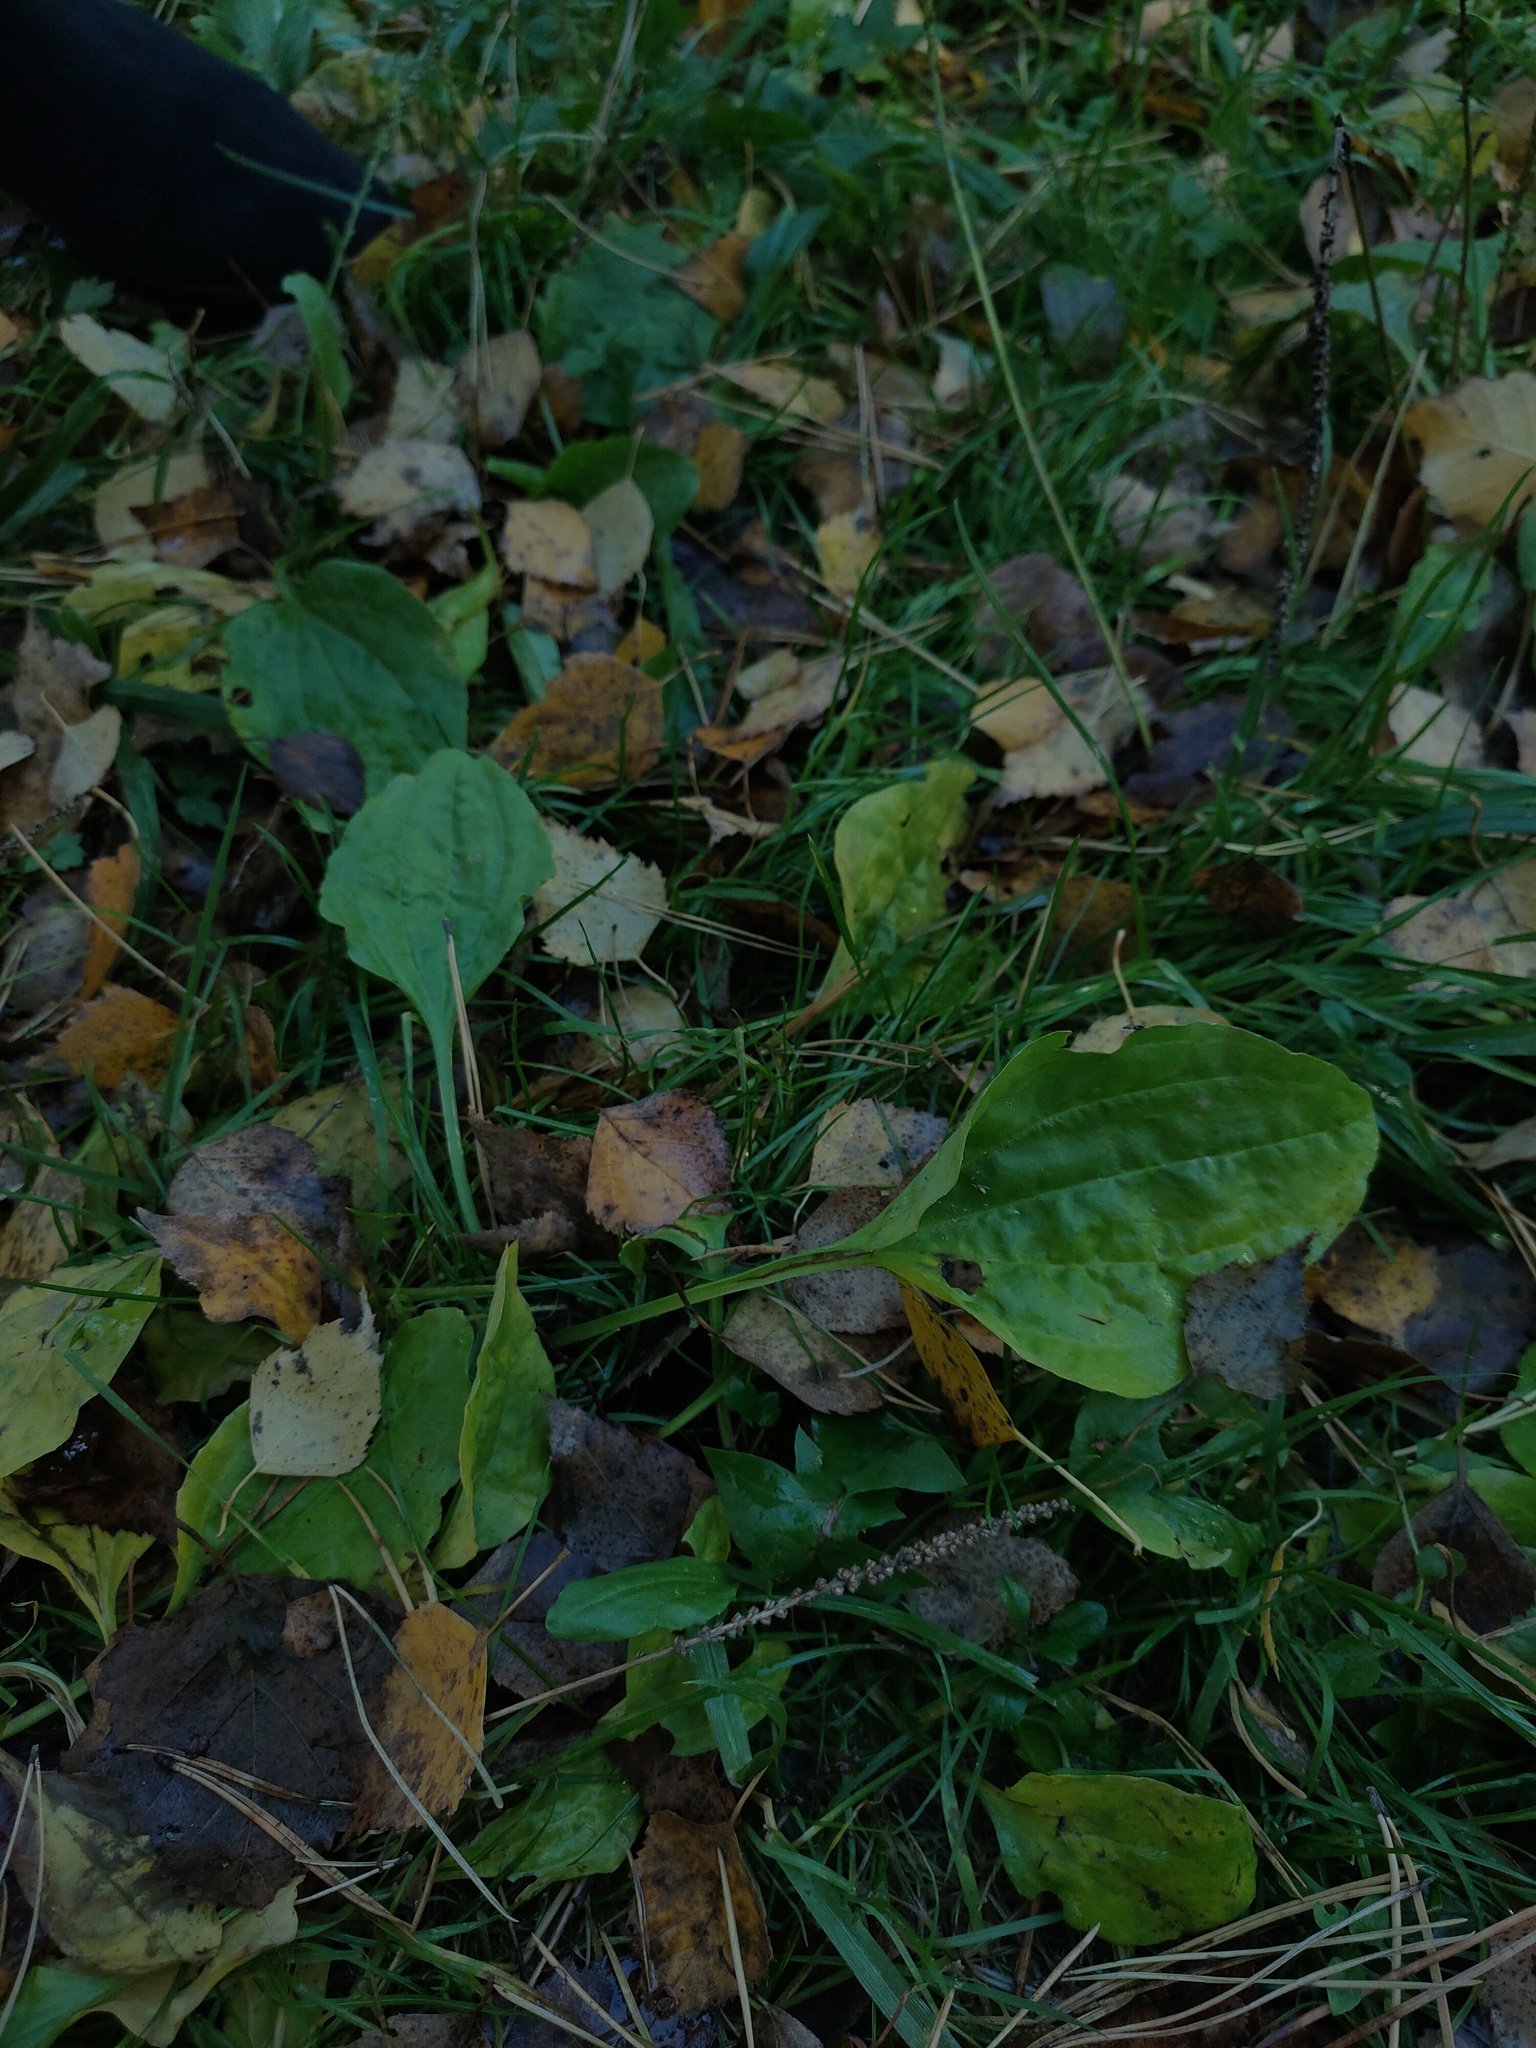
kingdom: Plantae
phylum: Tracheophyta
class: Magnoliopsida
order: Lamiales
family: Plantaginaceae
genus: Plantago
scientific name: Plantago major
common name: Common plantain
